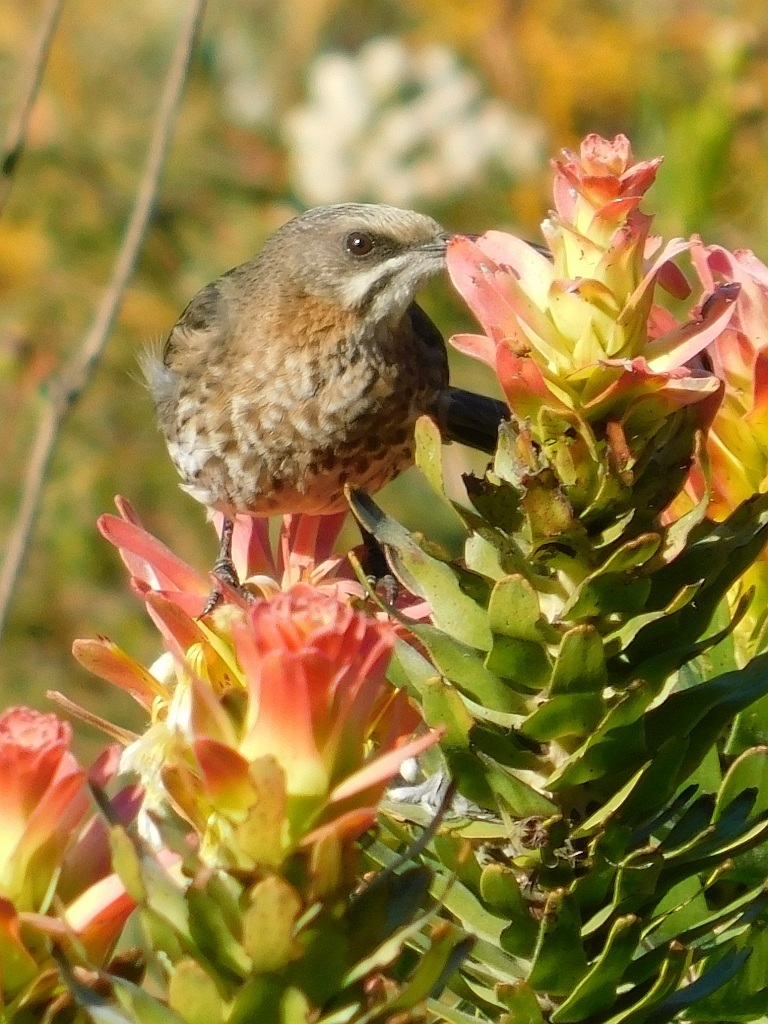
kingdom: Animalia
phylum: Chordata
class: Aves
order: Passeriformes
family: Promeropidae
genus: Promerops
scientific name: Promerops cafer
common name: Cape sugarbird
